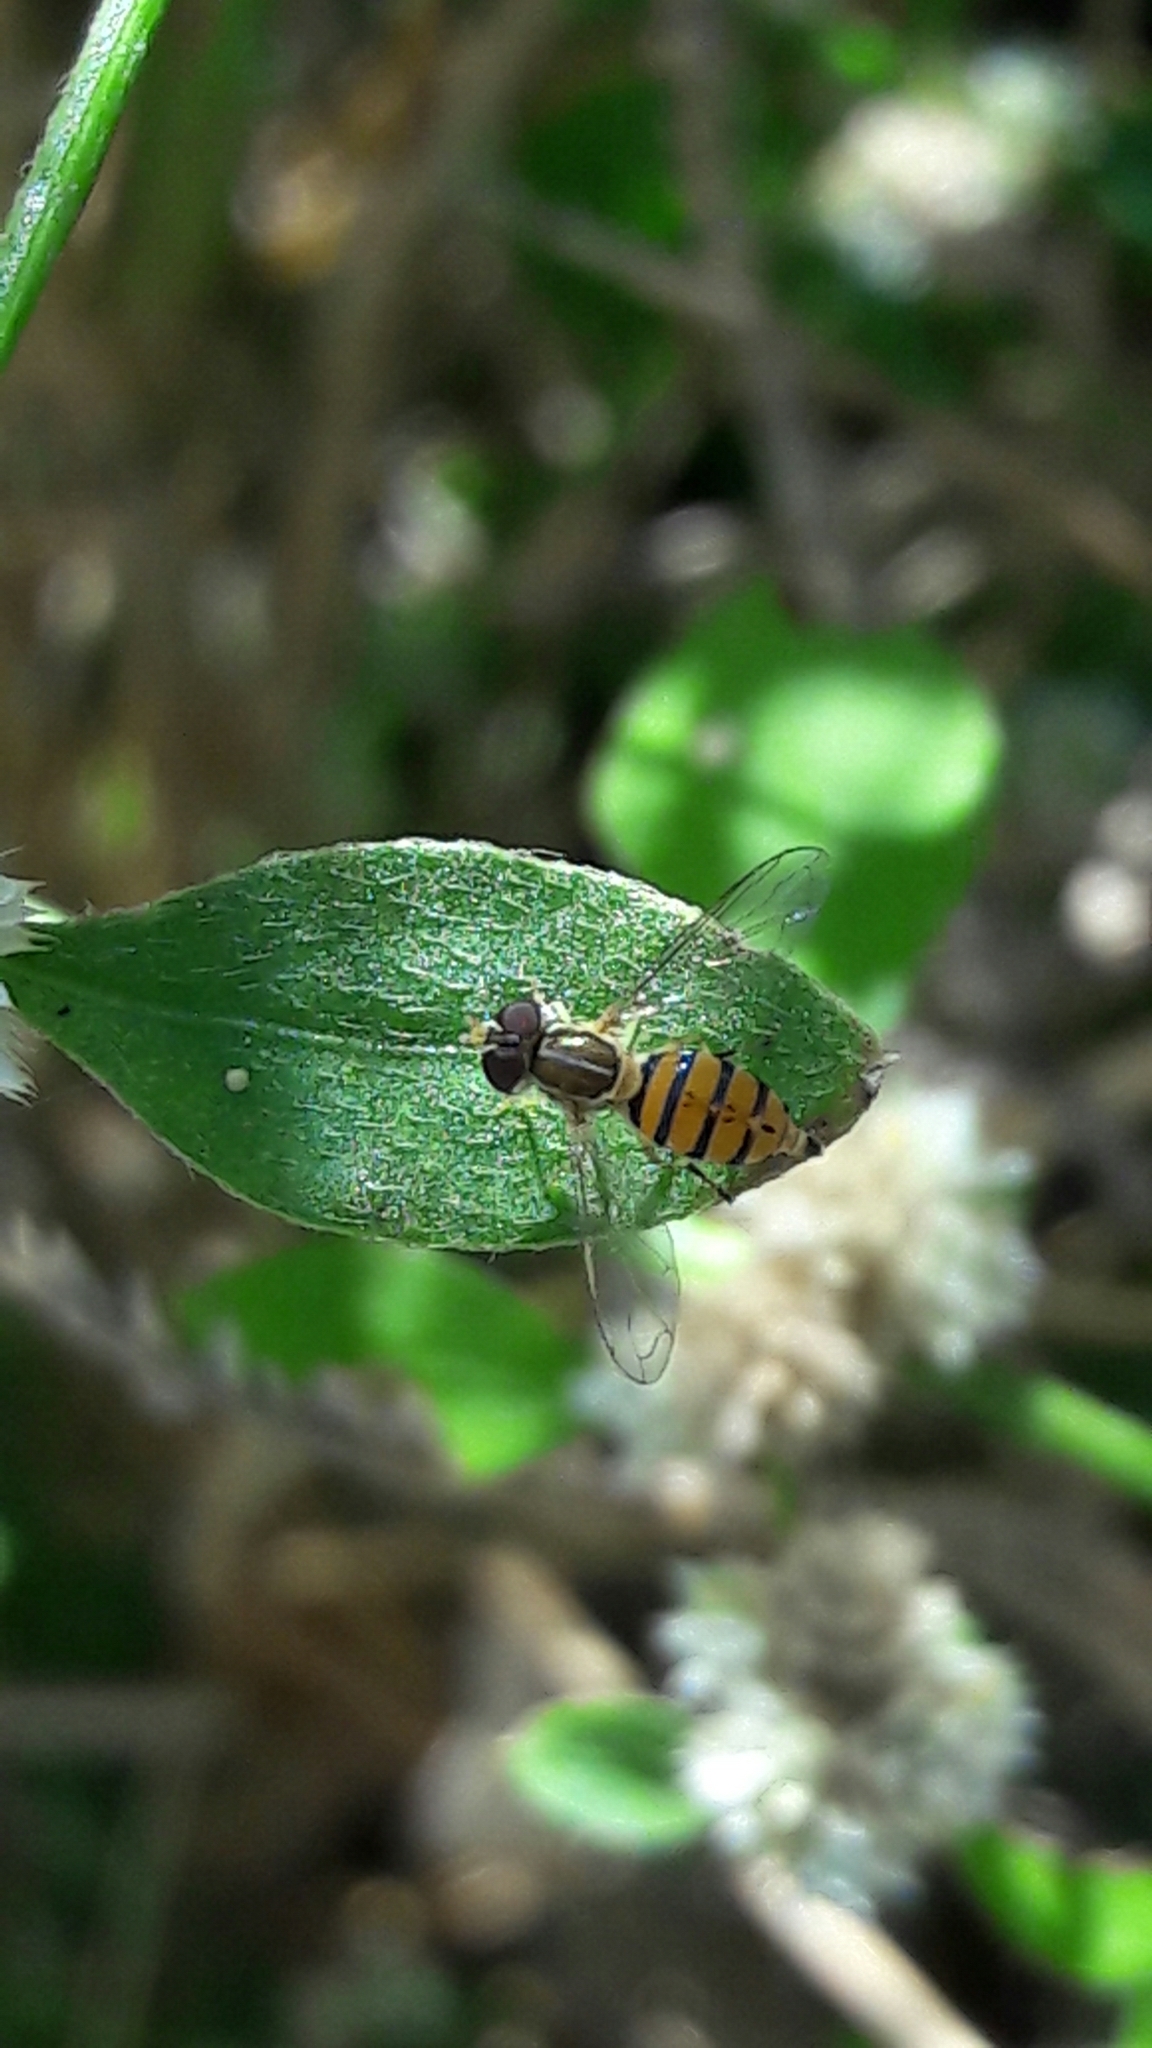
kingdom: Animalia
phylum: Arthropoda
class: Insecta
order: Diptera
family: Syrphidae
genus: Toxomerus
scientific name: Toxomerus
